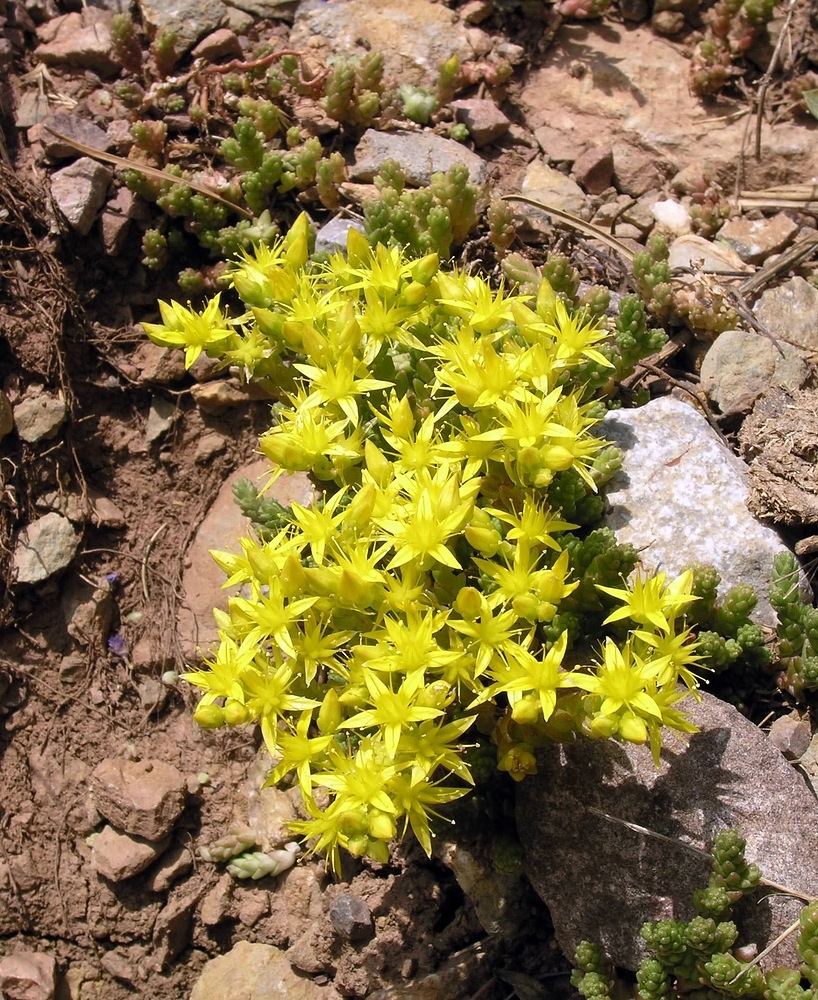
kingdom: Plantae
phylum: Tracheophyta
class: Magnoliopsida
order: Saxifragales
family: Crassulaceae
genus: Sedum
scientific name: Sedum acre
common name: Biting stonecrop
